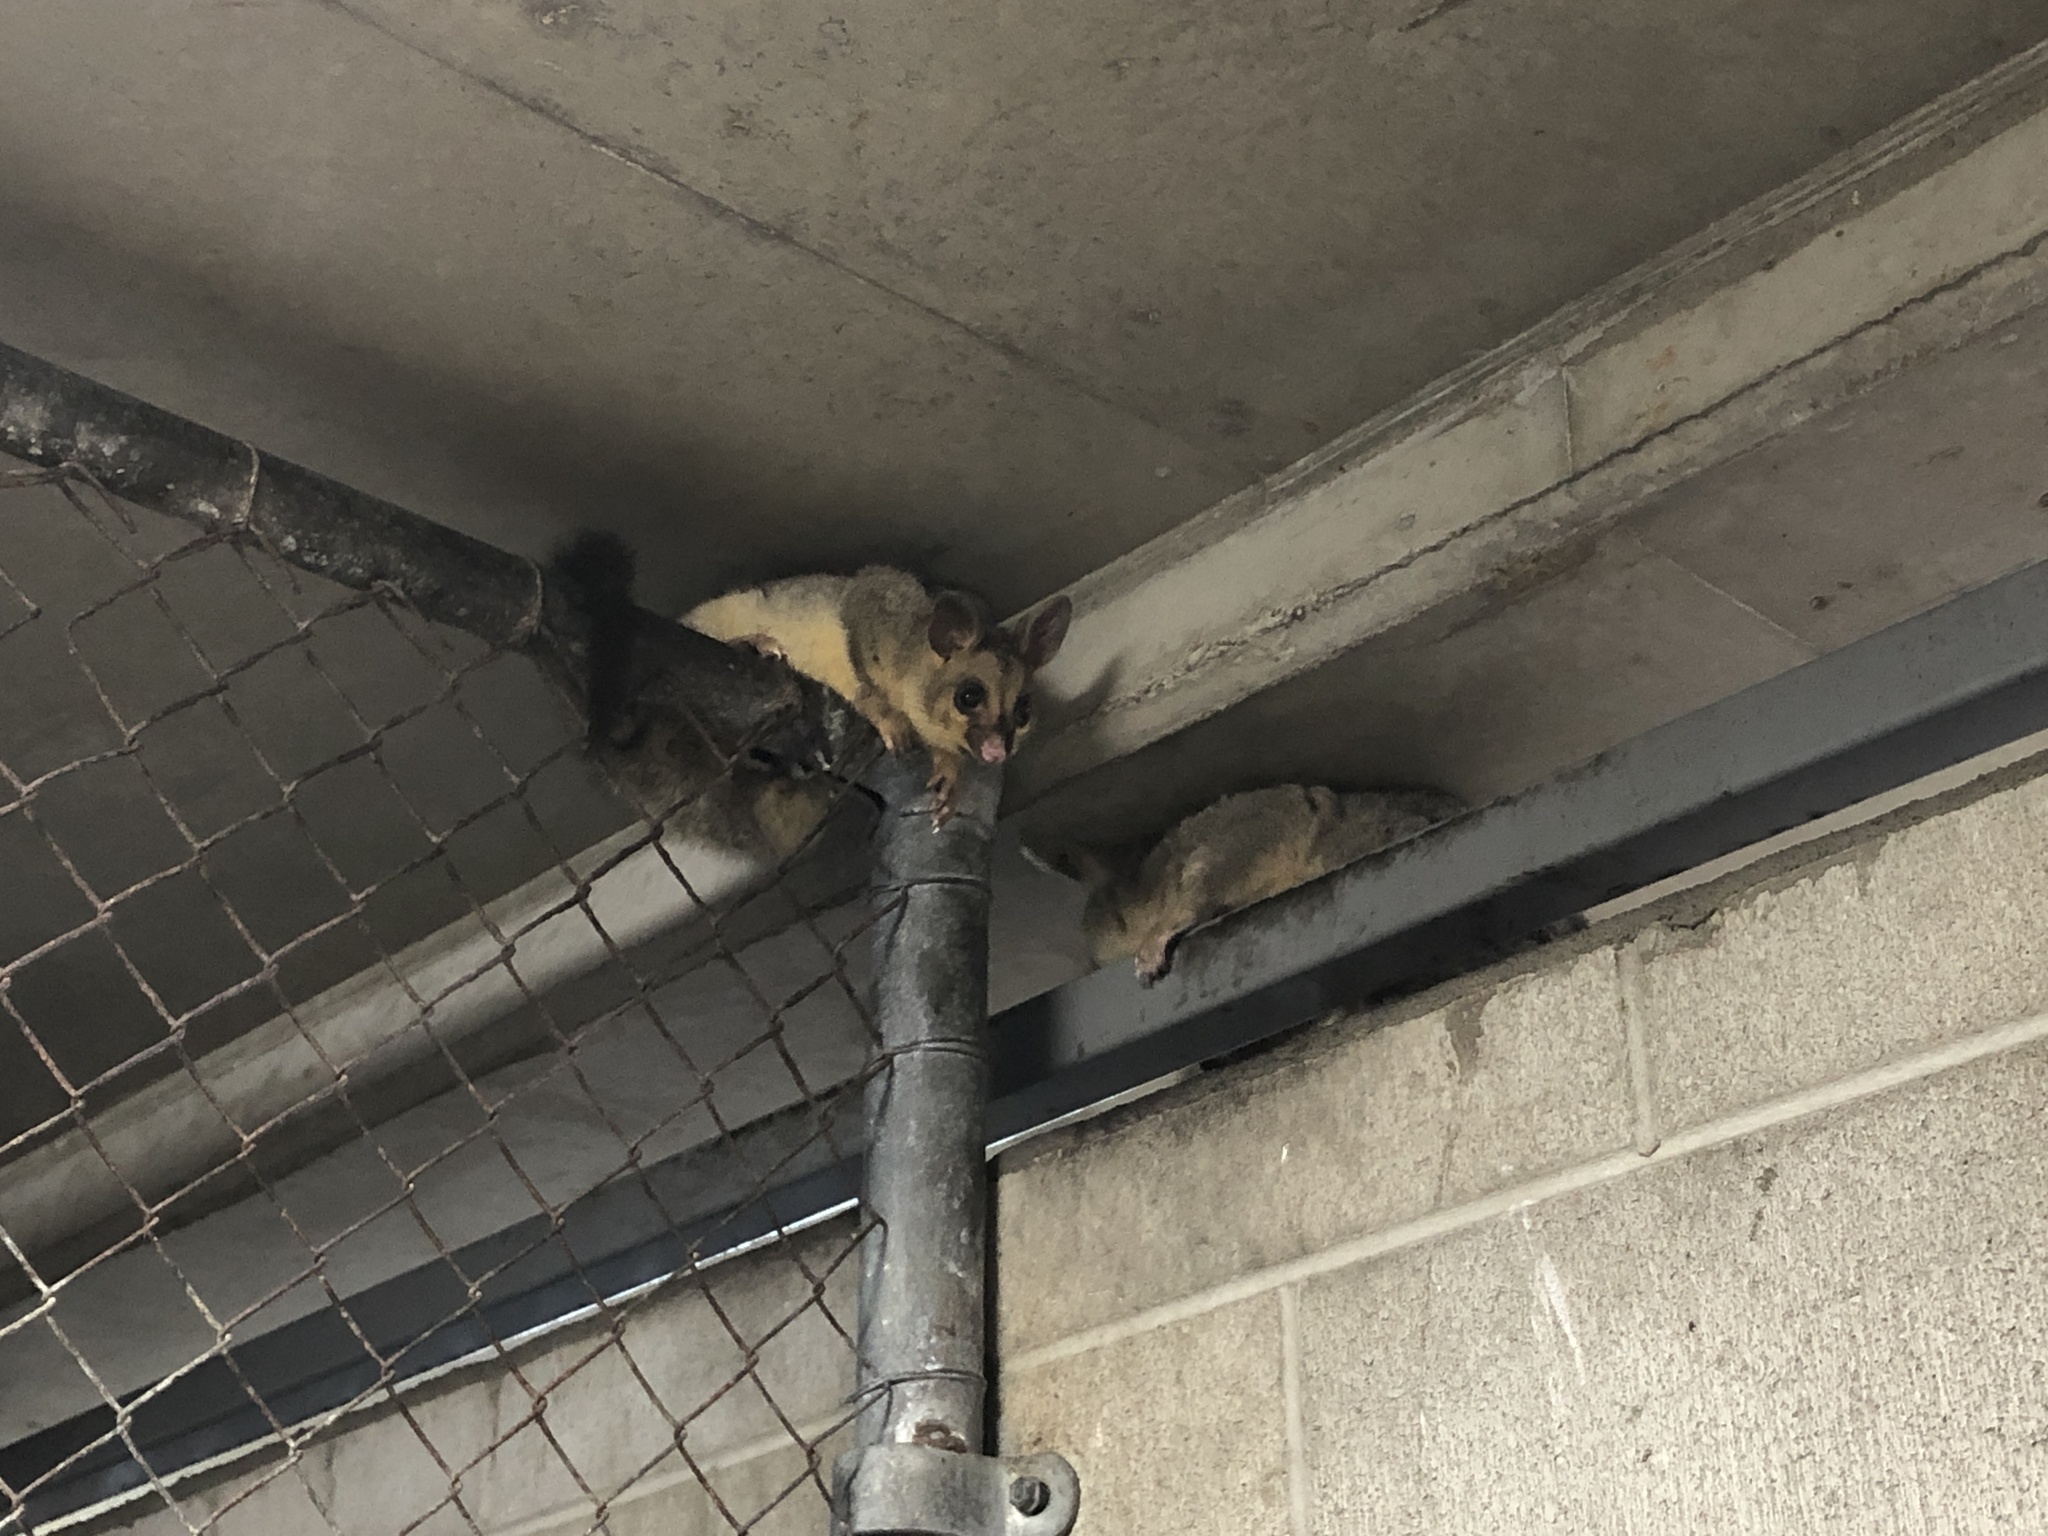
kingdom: Animalia
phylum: Chordata
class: Mammalia
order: Diprotodontia
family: Phalangeridae
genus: Trichosurus
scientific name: Trichosurus vulpecula
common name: Common brushtail
